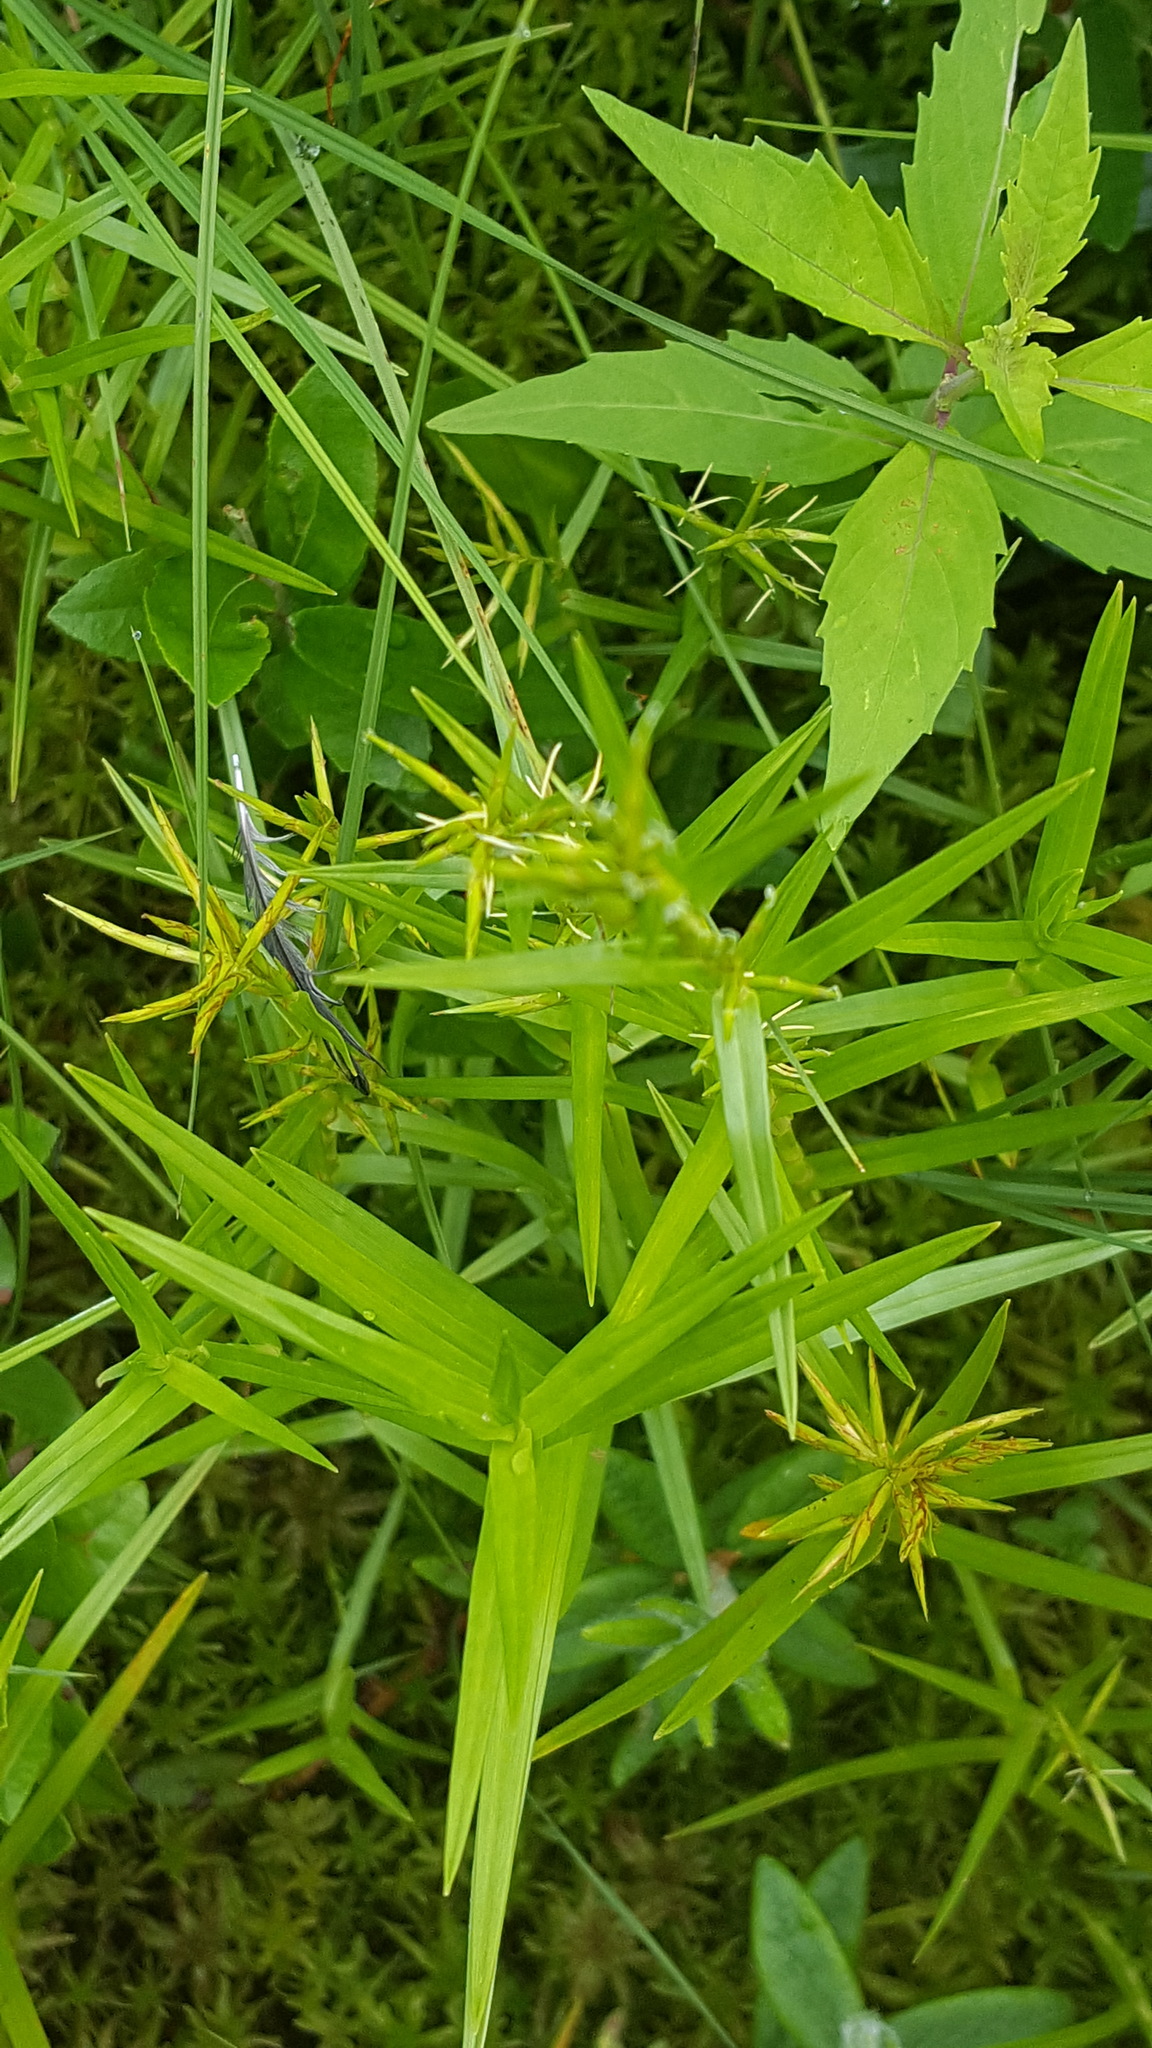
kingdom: Plantae
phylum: Tracheophyta
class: Liliopsida
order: Poales
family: Cyperaceae
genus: Dulichium
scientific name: Dulichium arundinaceum
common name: Three-way sedge
